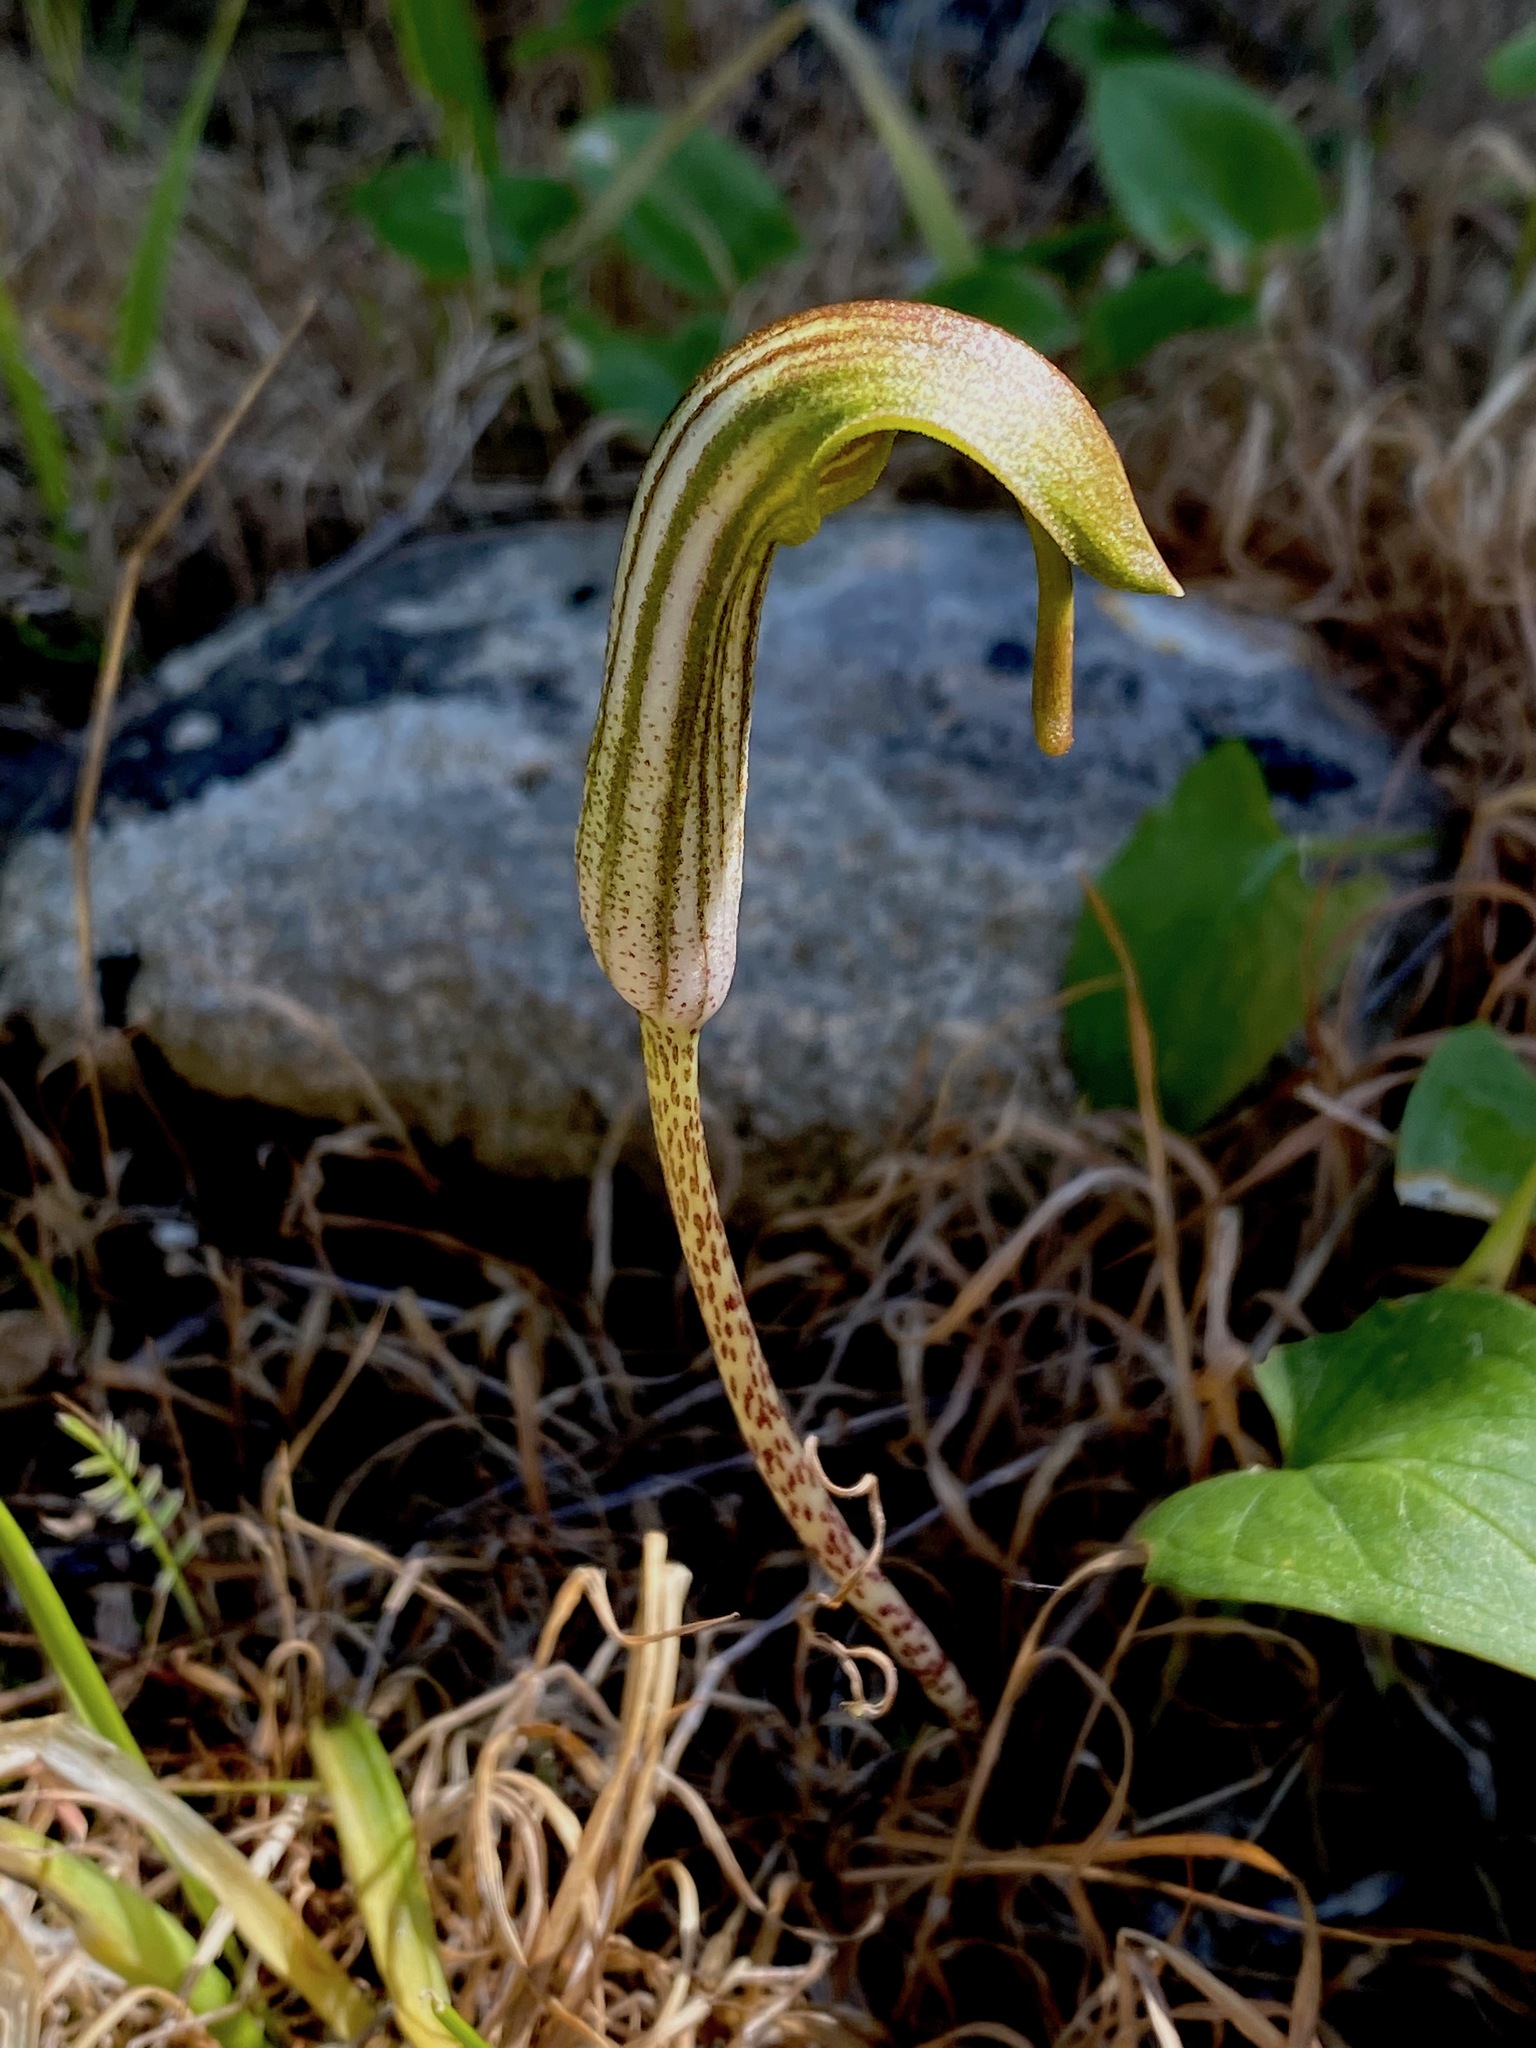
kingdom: Plantae
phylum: Tracheophyta
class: Liliopsida
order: Alismatales
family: Araceae
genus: Arisarum
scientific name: Arisarum vulgare
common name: Common arisarum
